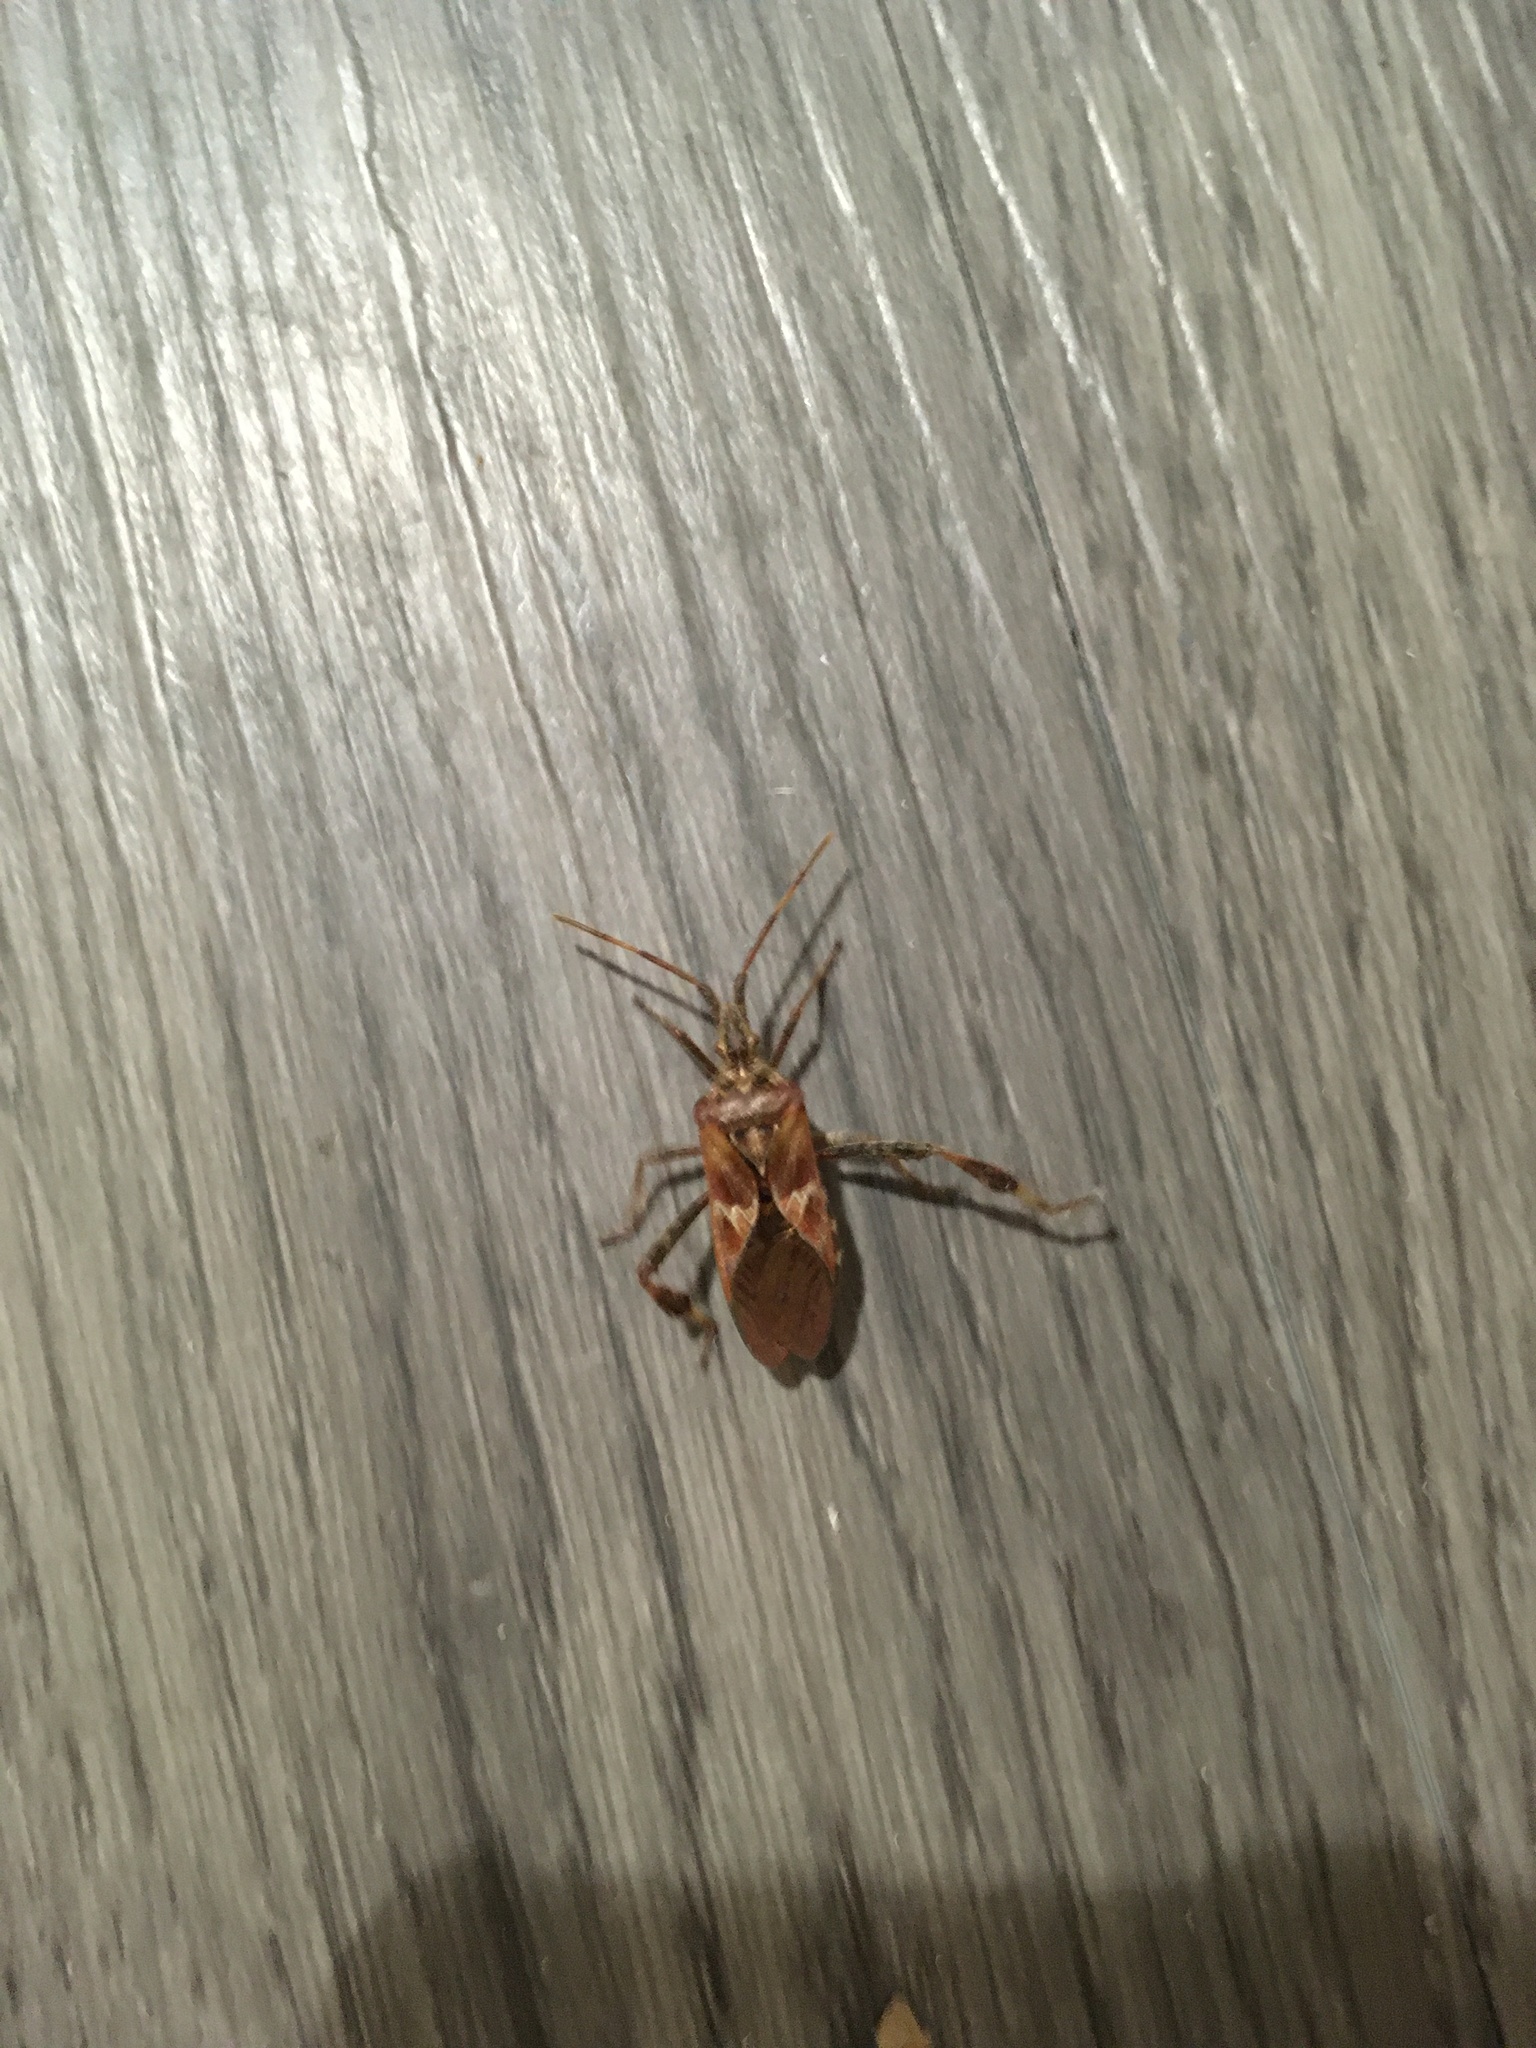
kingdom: Animalia
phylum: Arthropoda
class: Insecta
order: Hemiptera
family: Coreidae
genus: Leptoglossus
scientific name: Leptoglossus occidentalis
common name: Western conifer-seed bug
